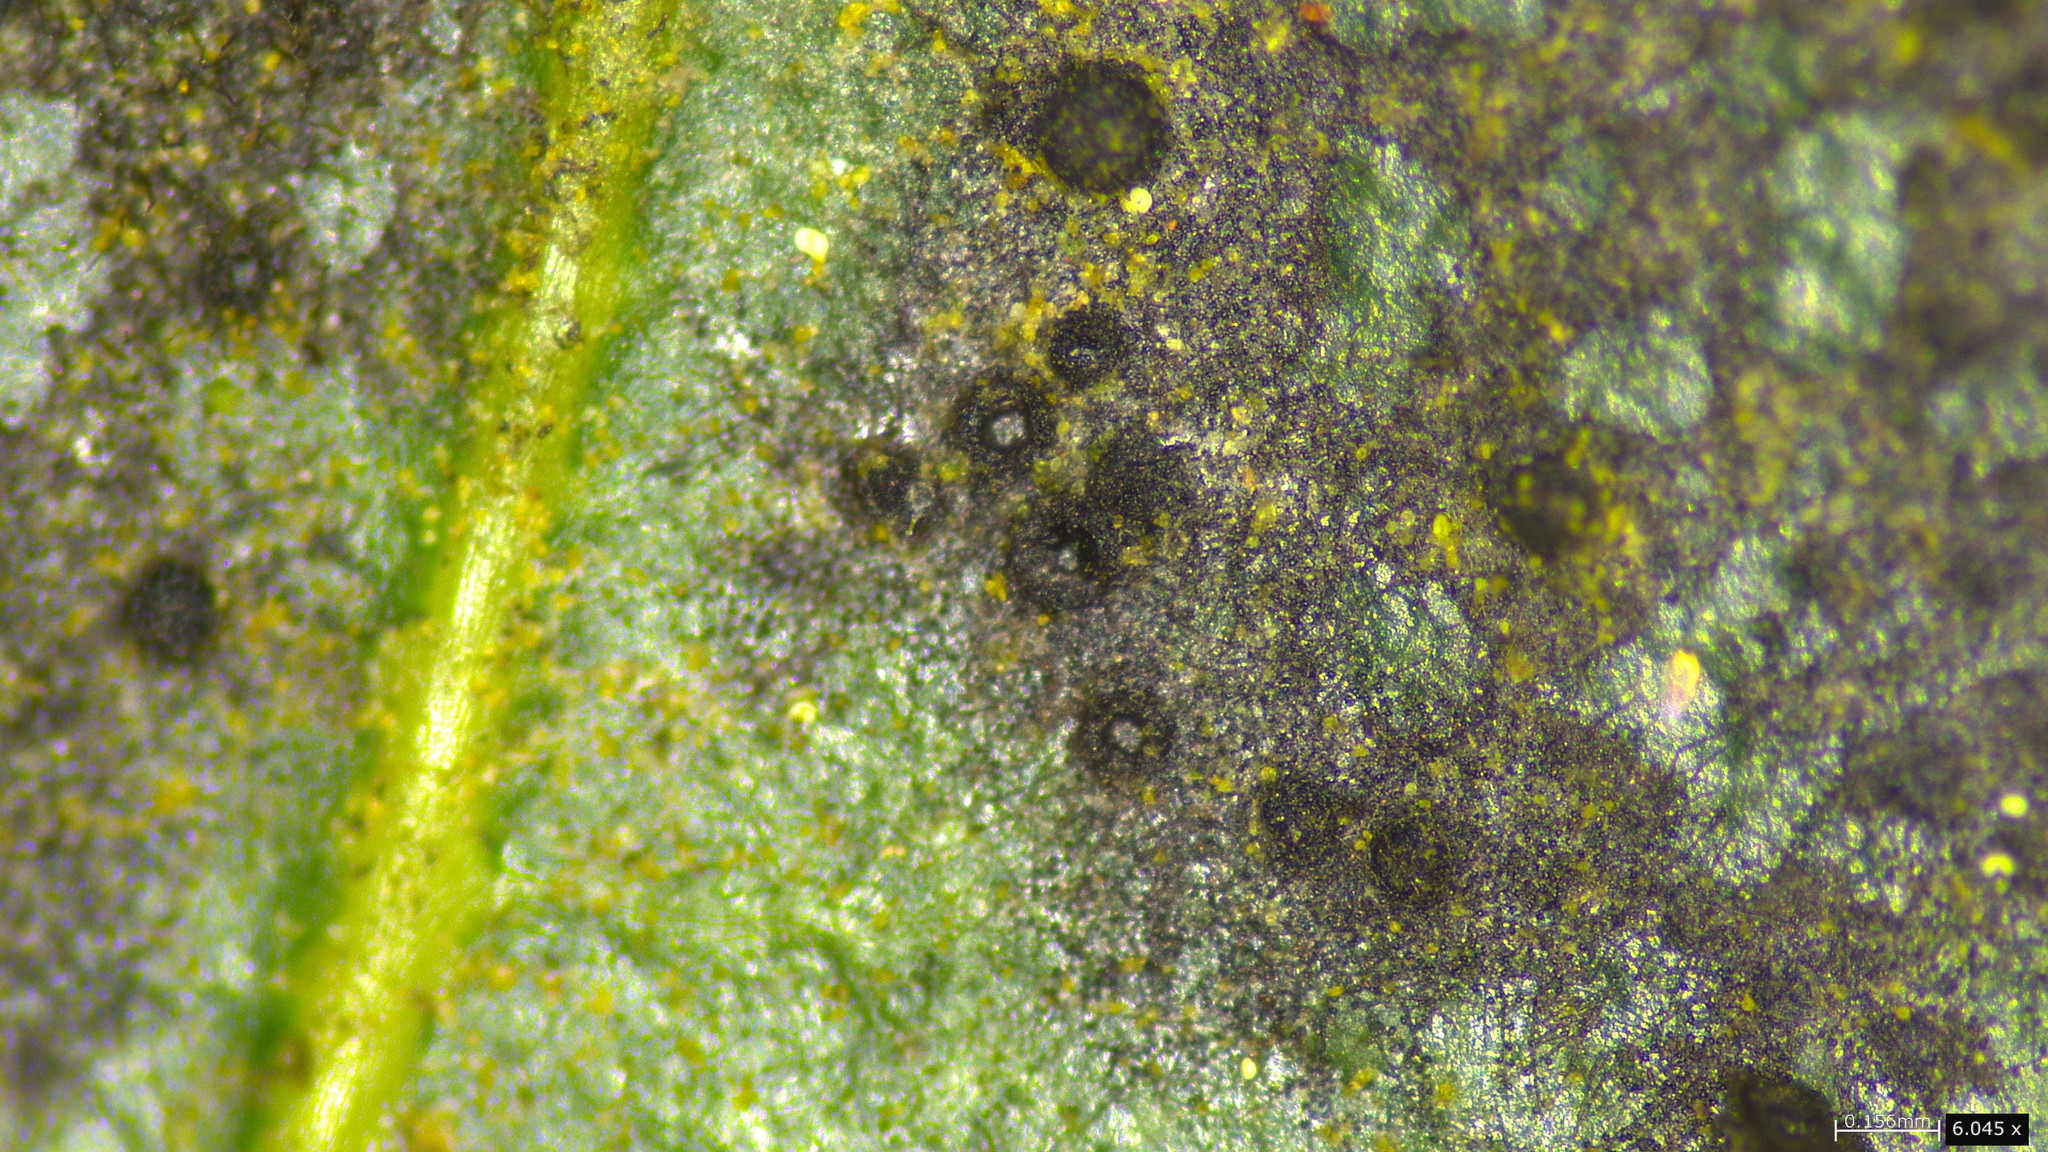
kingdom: Fungi
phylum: Ascomycota
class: Sordariomycetes
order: Meliolales
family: Armatellaceae
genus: Armatella
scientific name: Armatella litseae
